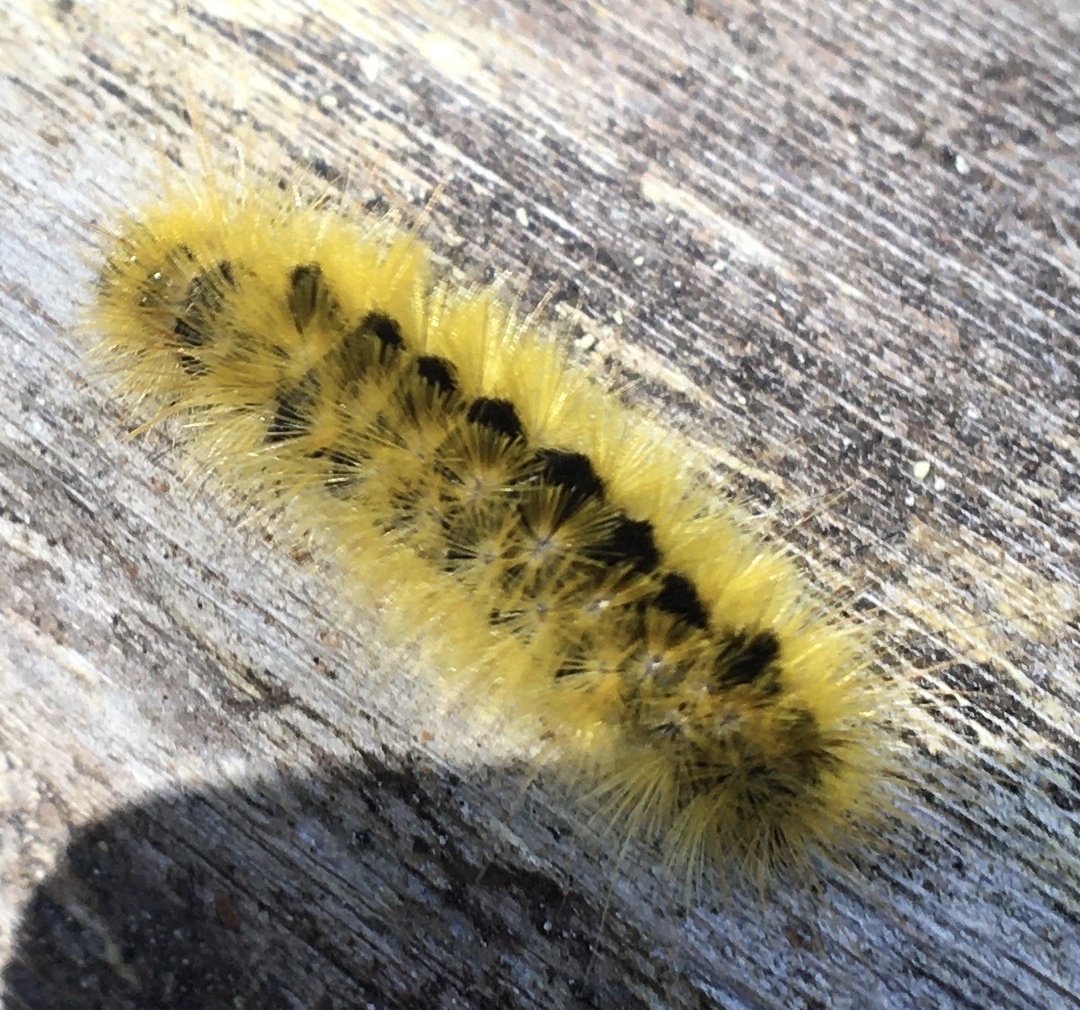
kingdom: Animalia
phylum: Arthropoda
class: Insecta
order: Lepidoptera
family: Erebidae
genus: Lophocampa
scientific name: Lophocampa argentata
